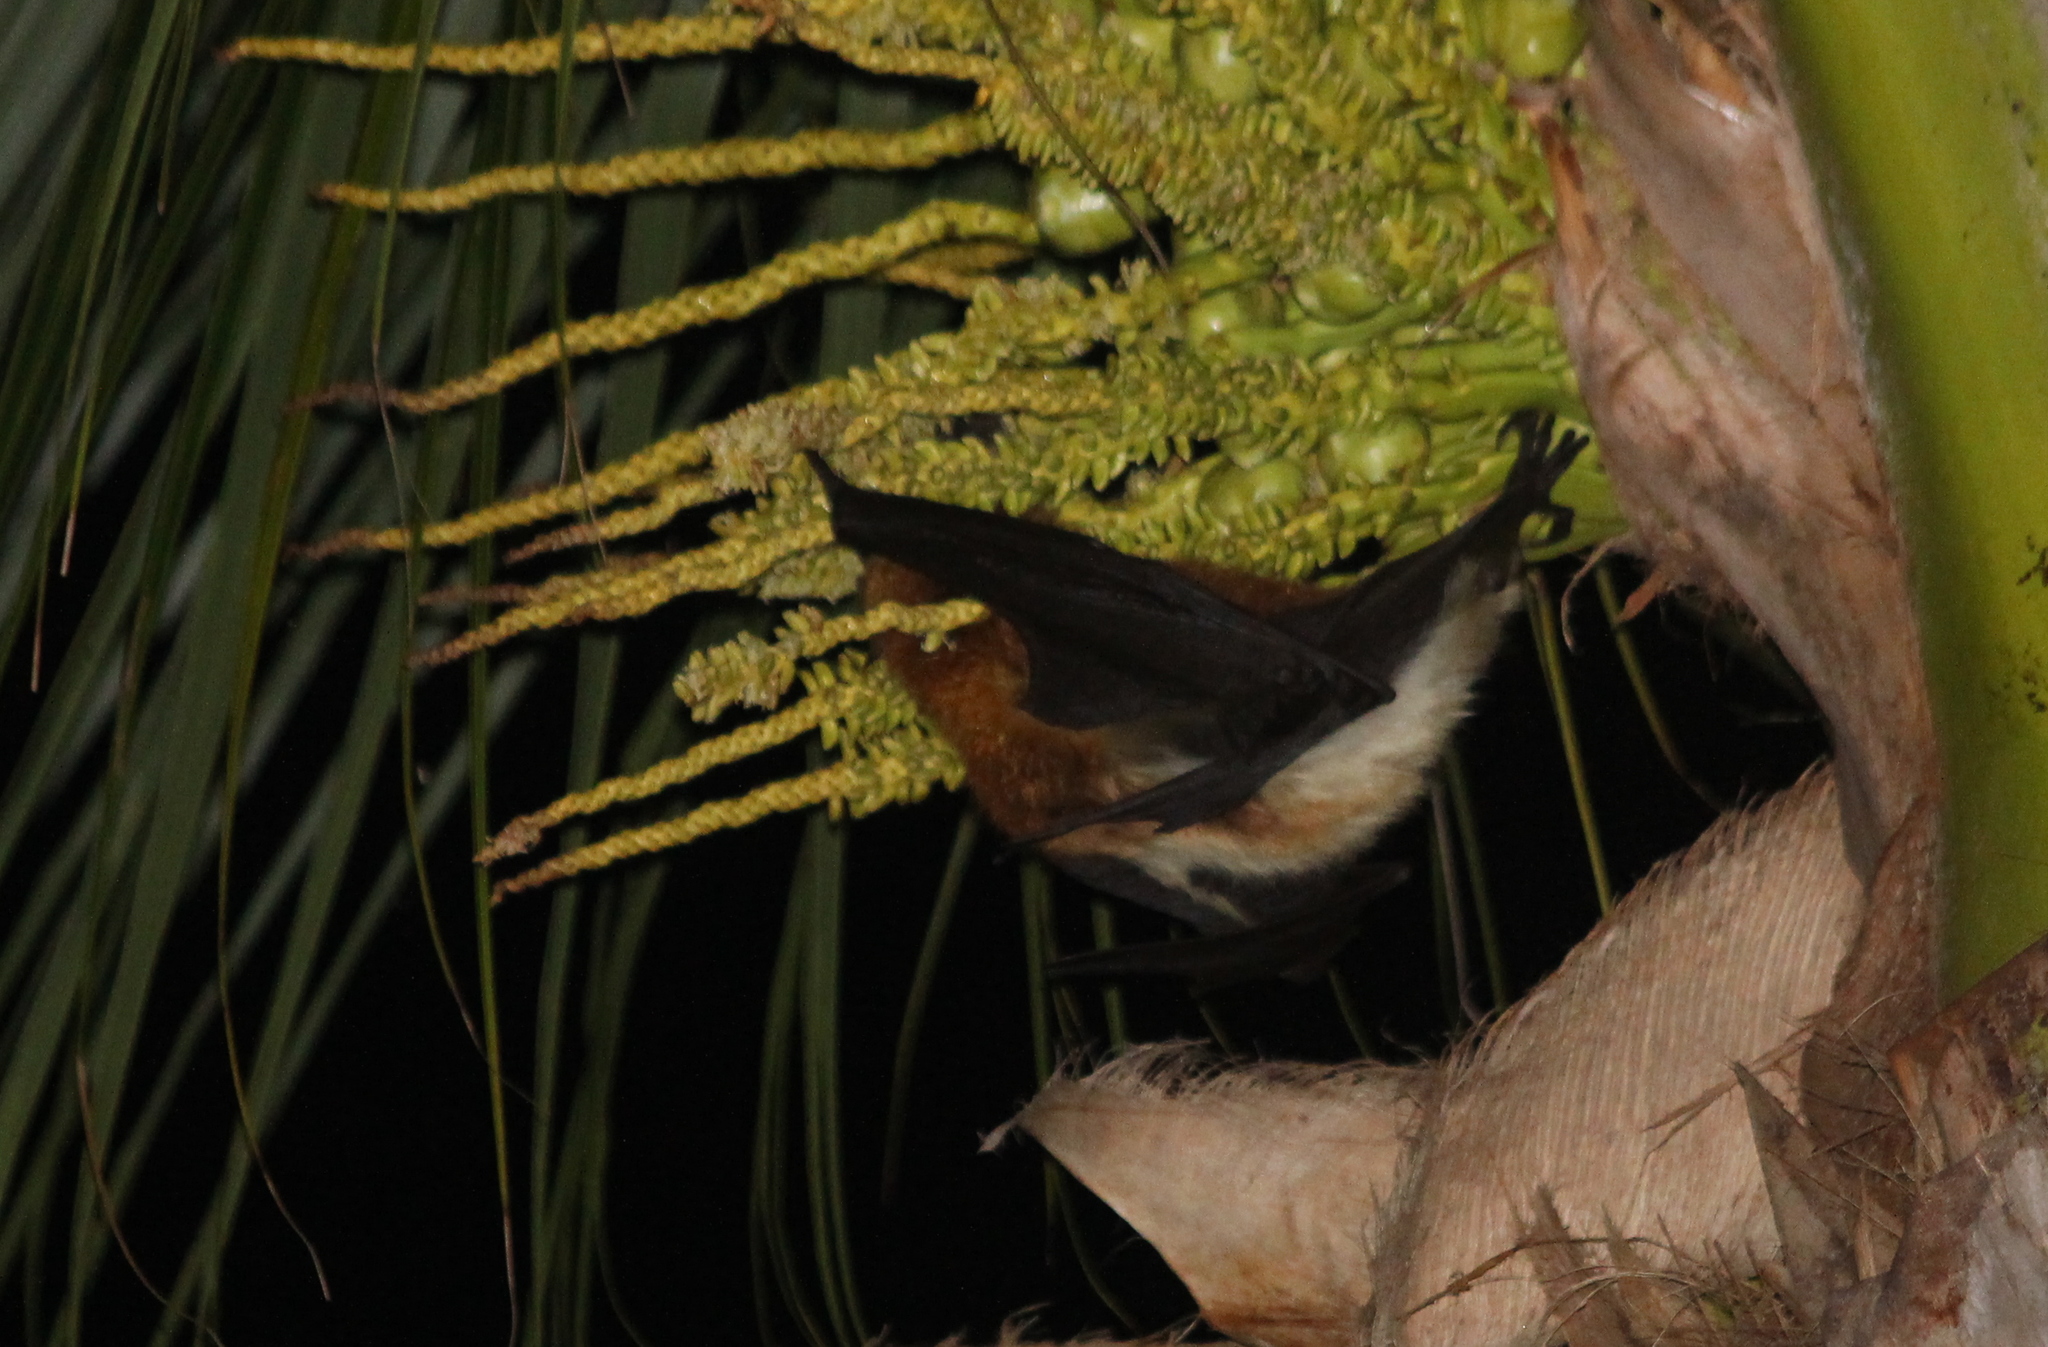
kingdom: Animalia
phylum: Chordata
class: Mammalia
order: Chiroptera
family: Pteropodidae
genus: Pteropus
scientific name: Pteropus niger
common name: Greater mascarene flying fox
